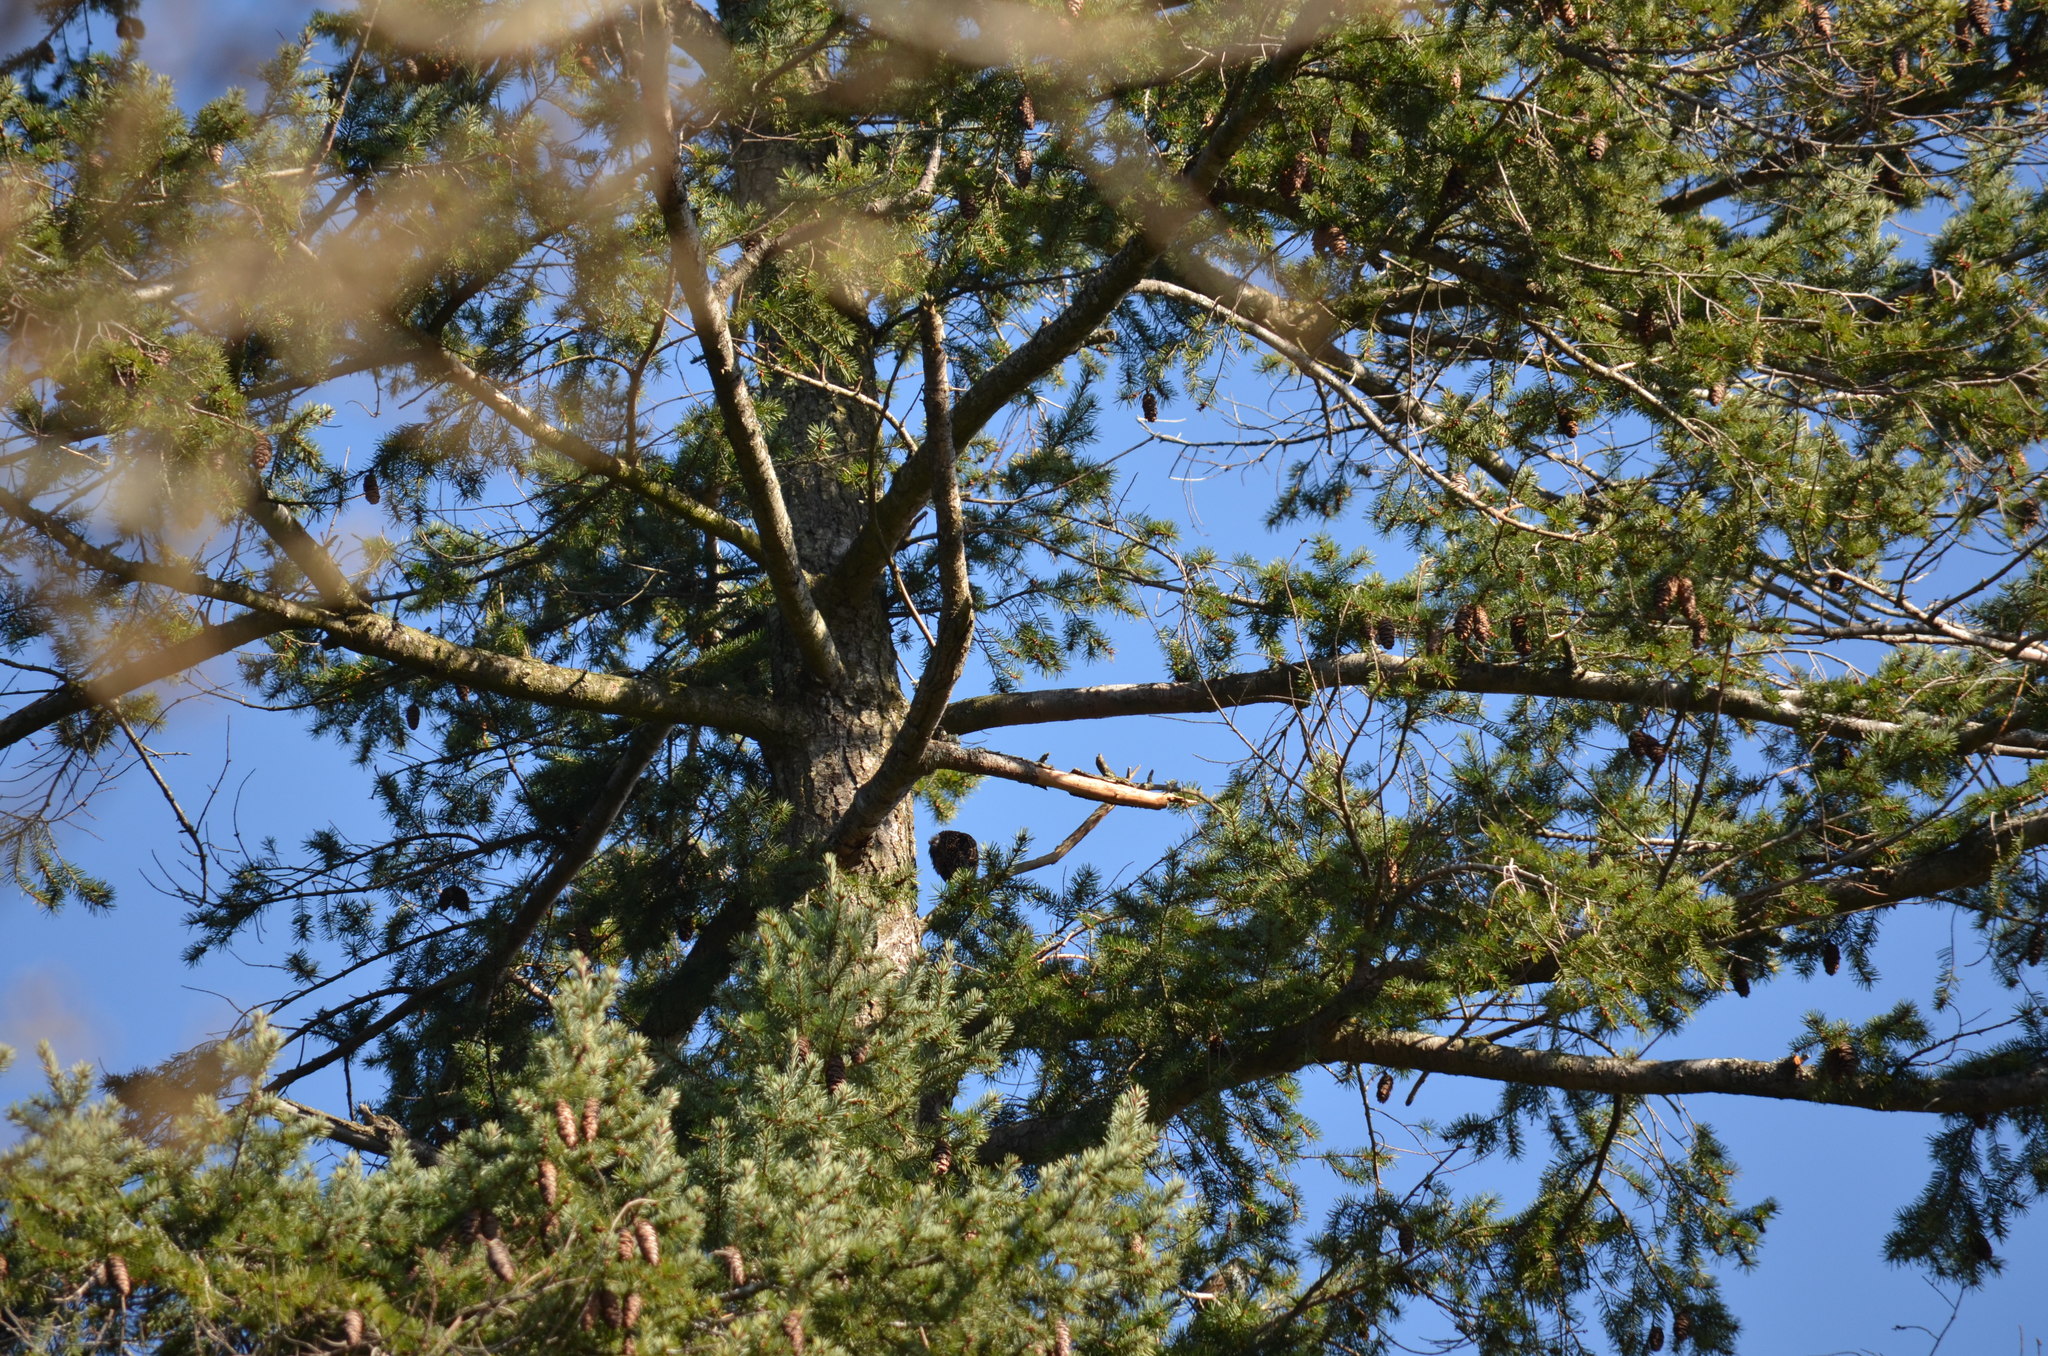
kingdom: Animalia
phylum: Chordata
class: Aves
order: Passeriformes
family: Sturnidae
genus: Sturnus
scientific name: Sturnus vulgaris
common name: Common starling
